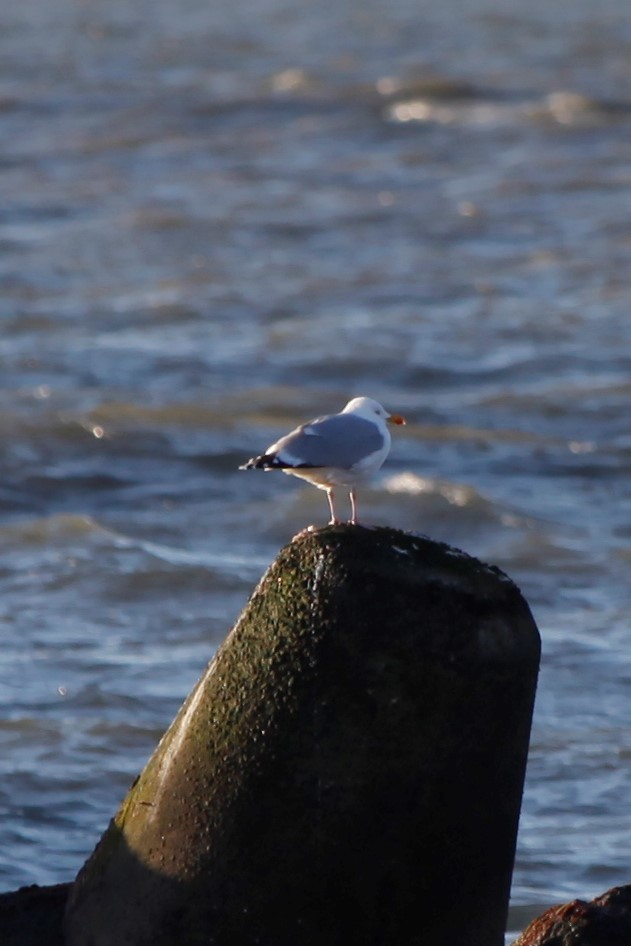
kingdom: Animalia
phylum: Chordata
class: Aves
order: Charadriiformes
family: Laridae
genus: Larus
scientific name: Larus argentatus
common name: Herring gull
